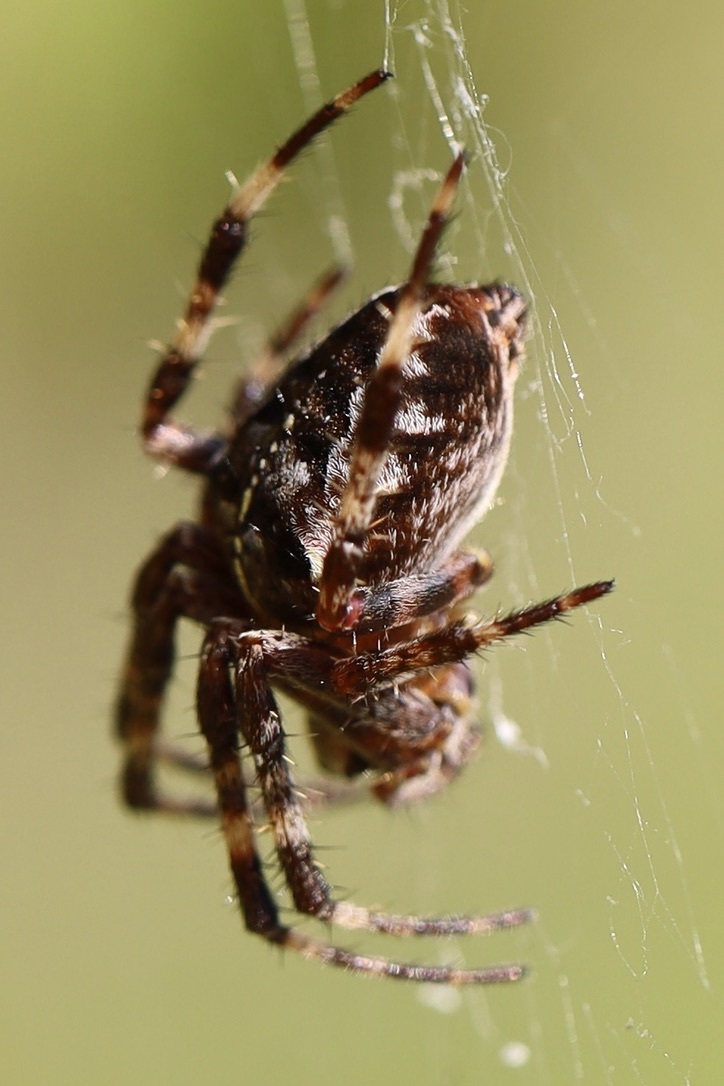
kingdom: Animalia
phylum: Arthropoda
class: Arachnida
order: Araneae
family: Araneidae
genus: Araneus
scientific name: Araneus diadematus
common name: Cross orbweaver
